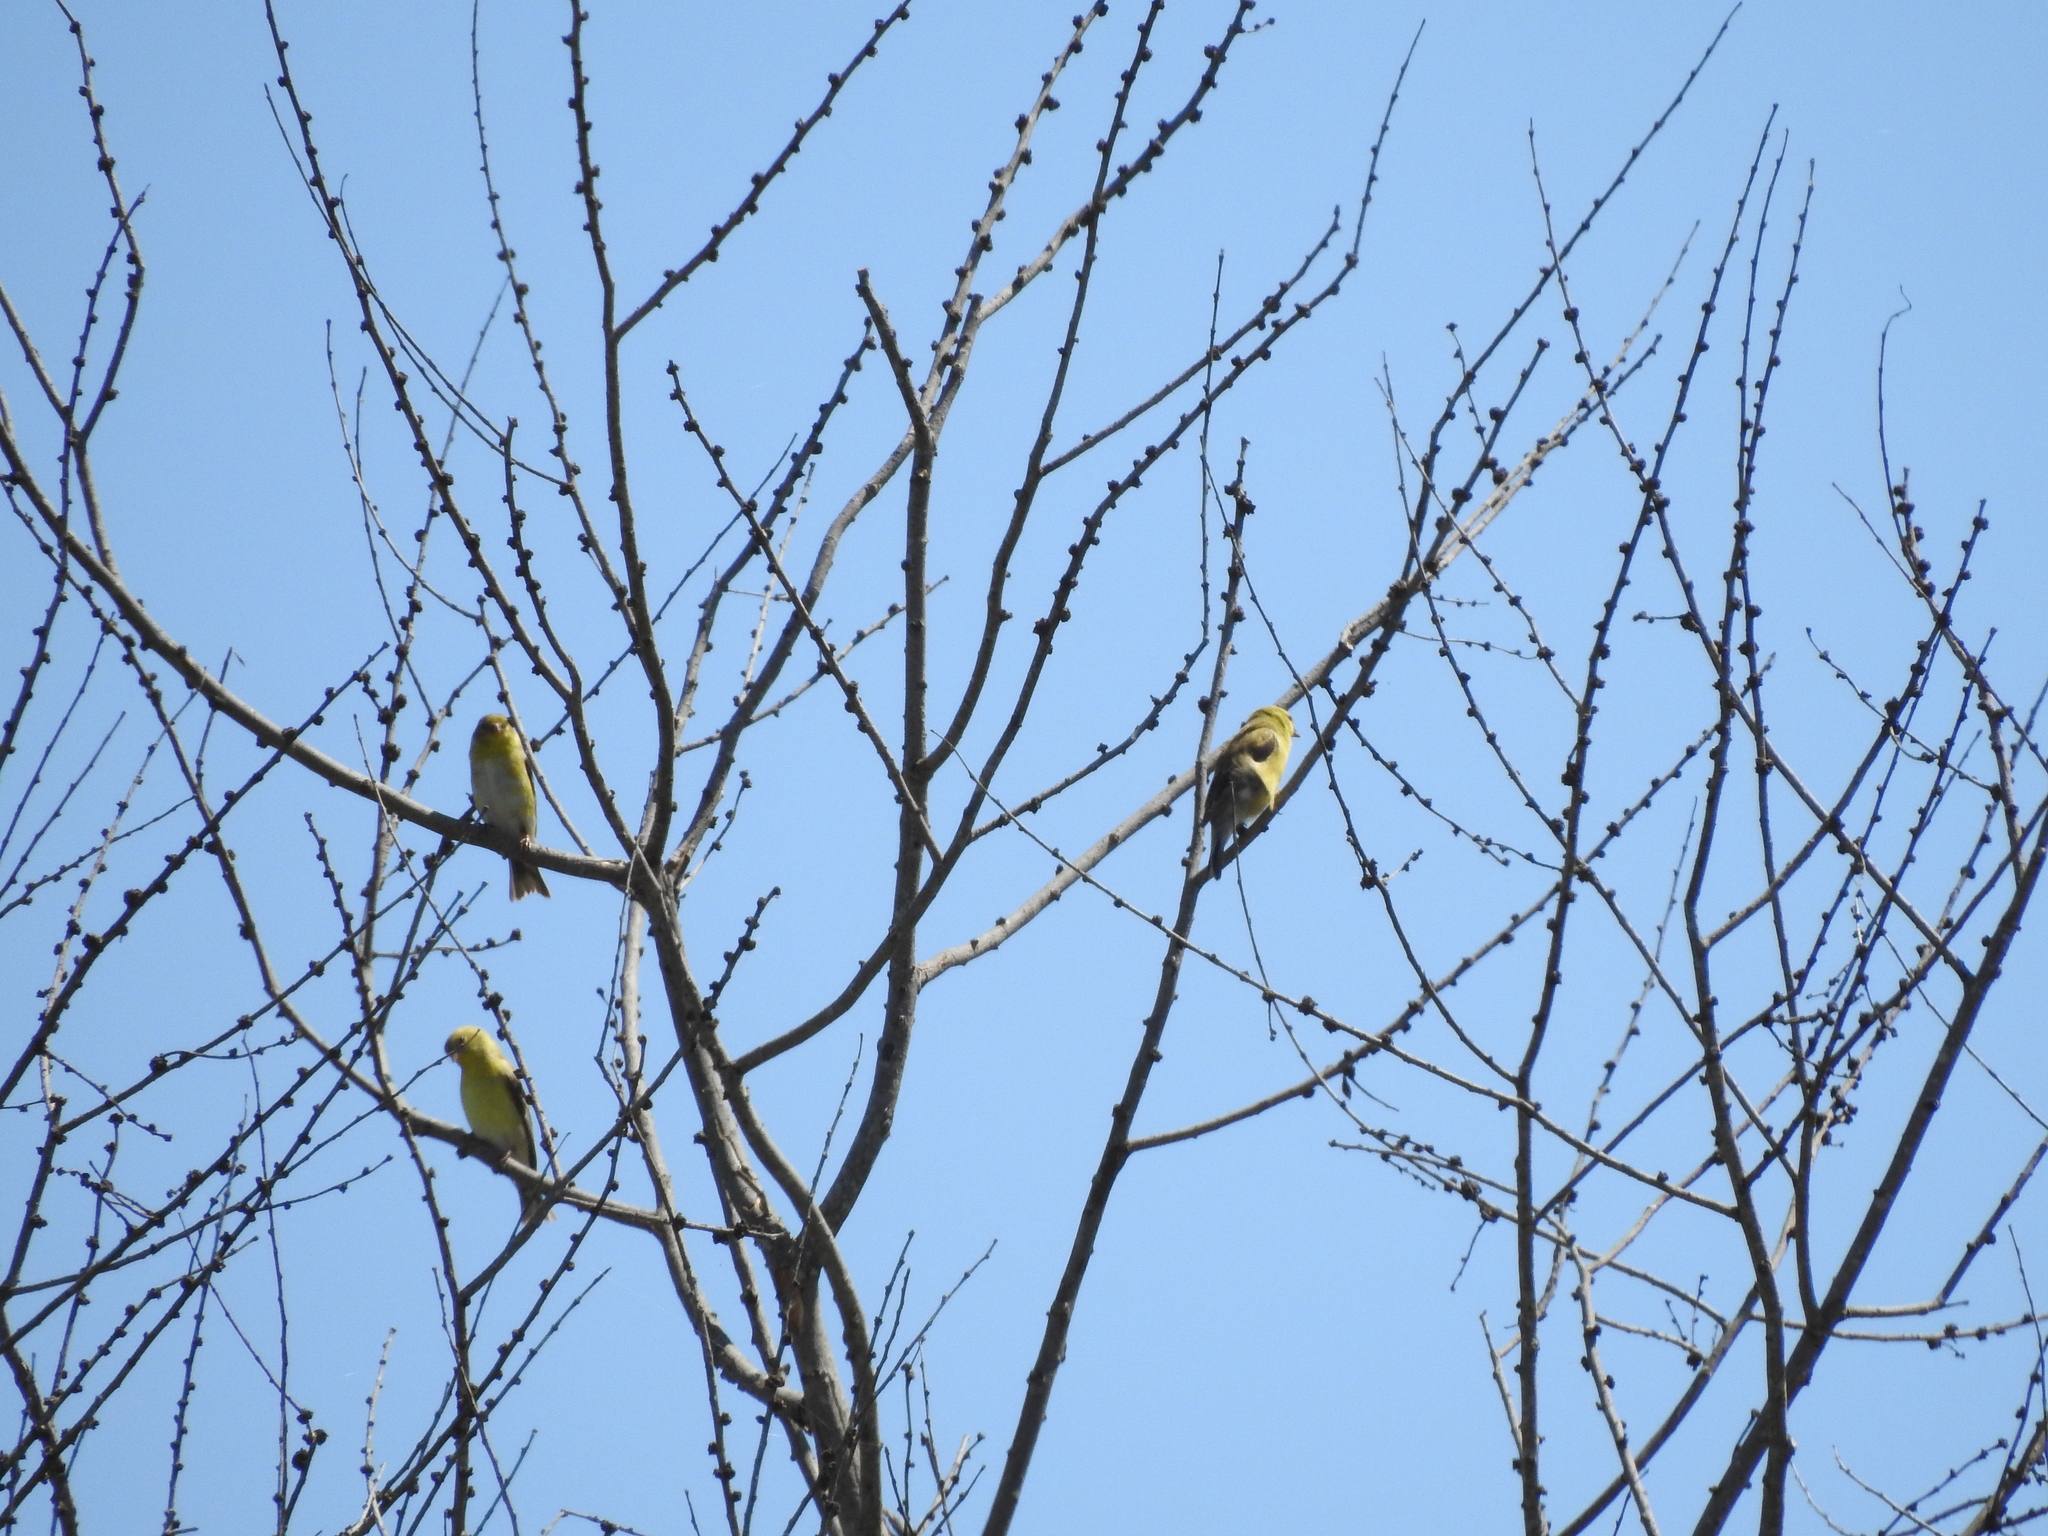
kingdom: Animalia
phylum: Chordata
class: Aves
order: Passeriformes
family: Fringillidae
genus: Spinus
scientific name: Spinus tristis
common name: American goldfinch
